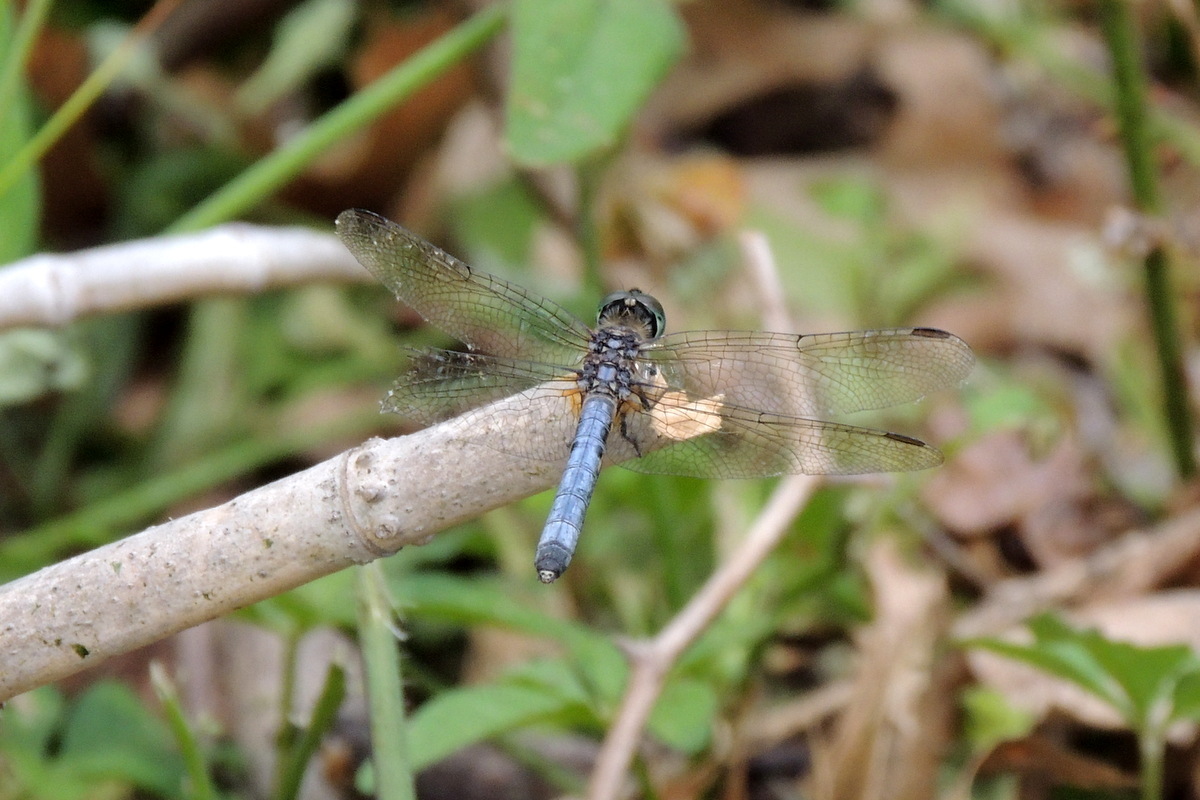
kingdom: Animalia
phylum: Arthropoda
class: Insecta
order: Odonata
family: Libellulidae
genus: Pachydiplax
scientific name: Pachydiplax longipennis
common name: Blue dasher
